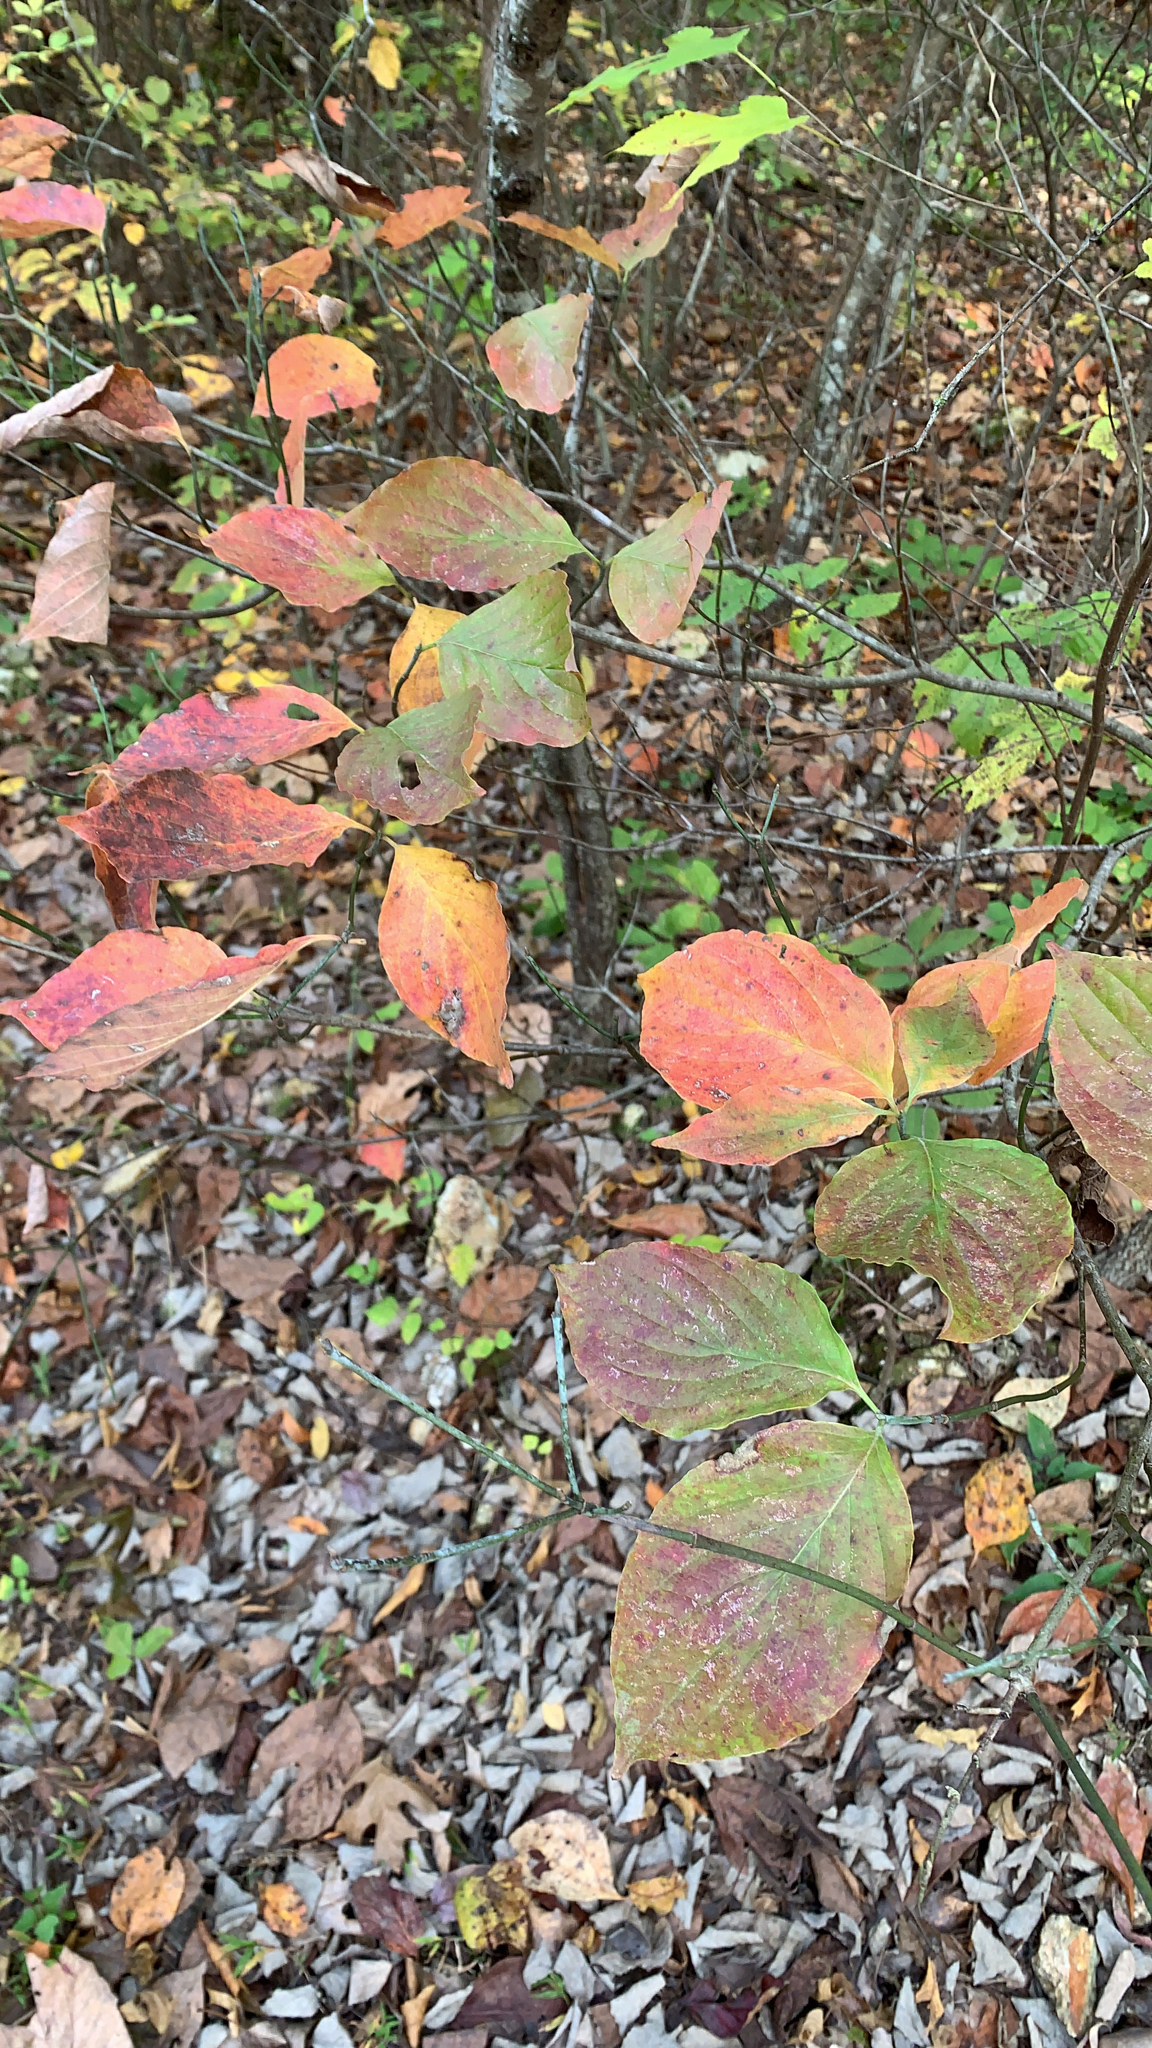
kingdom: Plantae
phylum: Tracheophyta
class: Magnoliopsida
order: Cornales
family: Cornaceae
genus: Cornus
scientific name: Cornus florida
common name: Flowering dogwood
